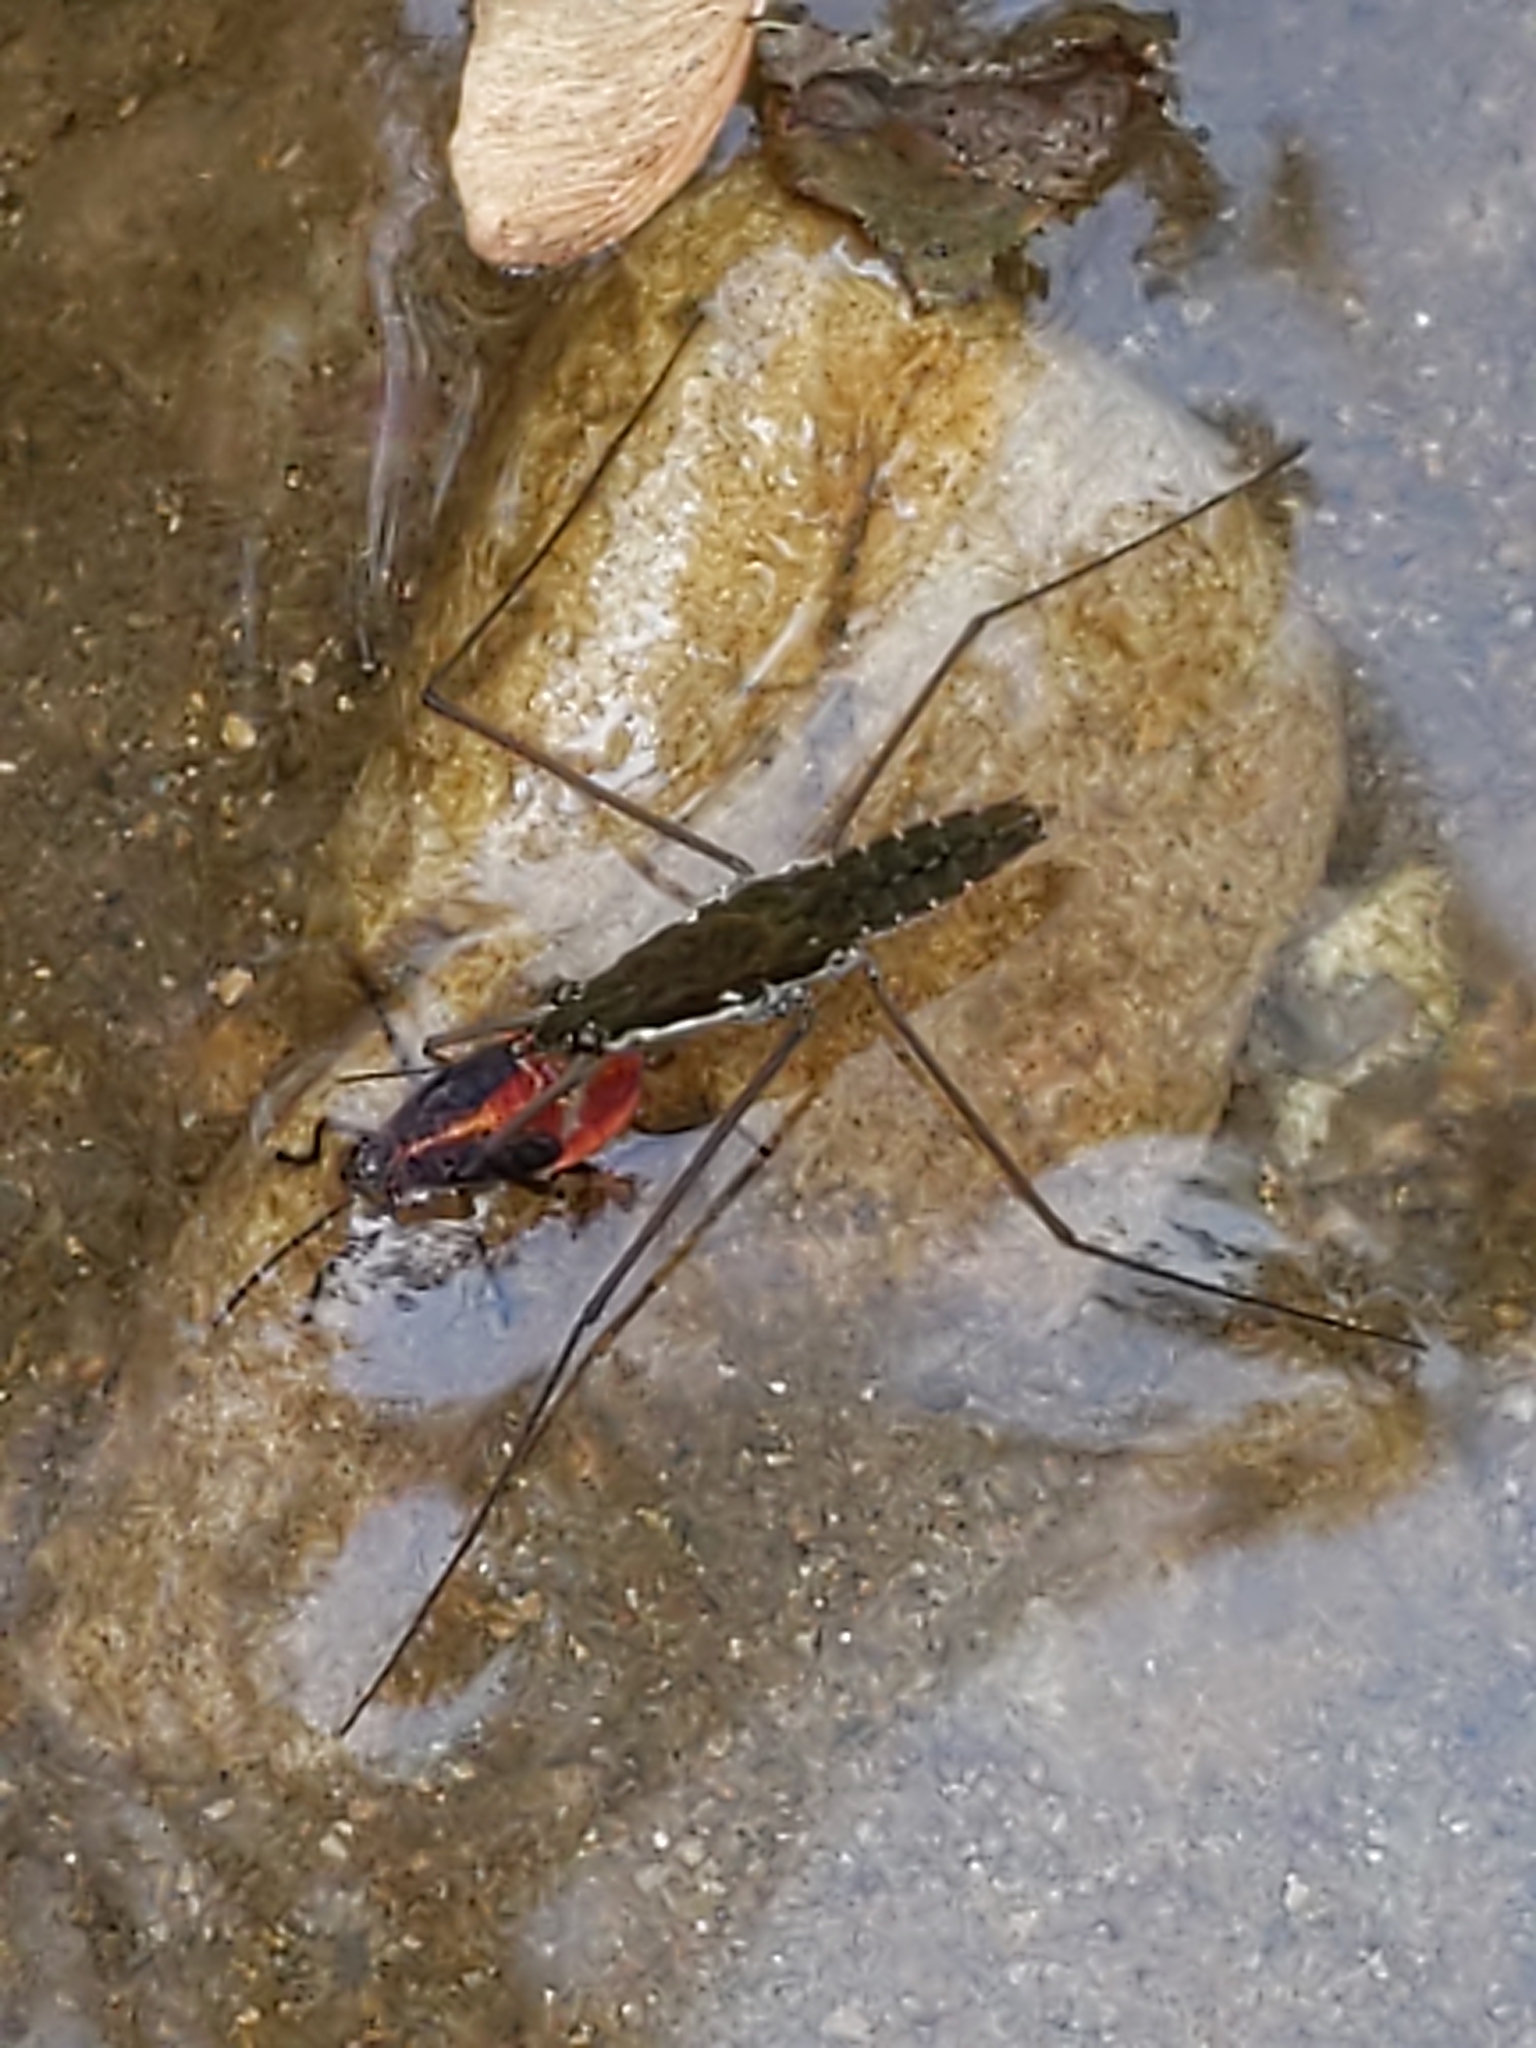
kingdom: Animalia
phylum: Arthropoda
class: Insecta
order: Hemiptera
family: Rhopalidae
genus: Boisea
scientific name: Boisea trivittata
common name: Boxelder bug
